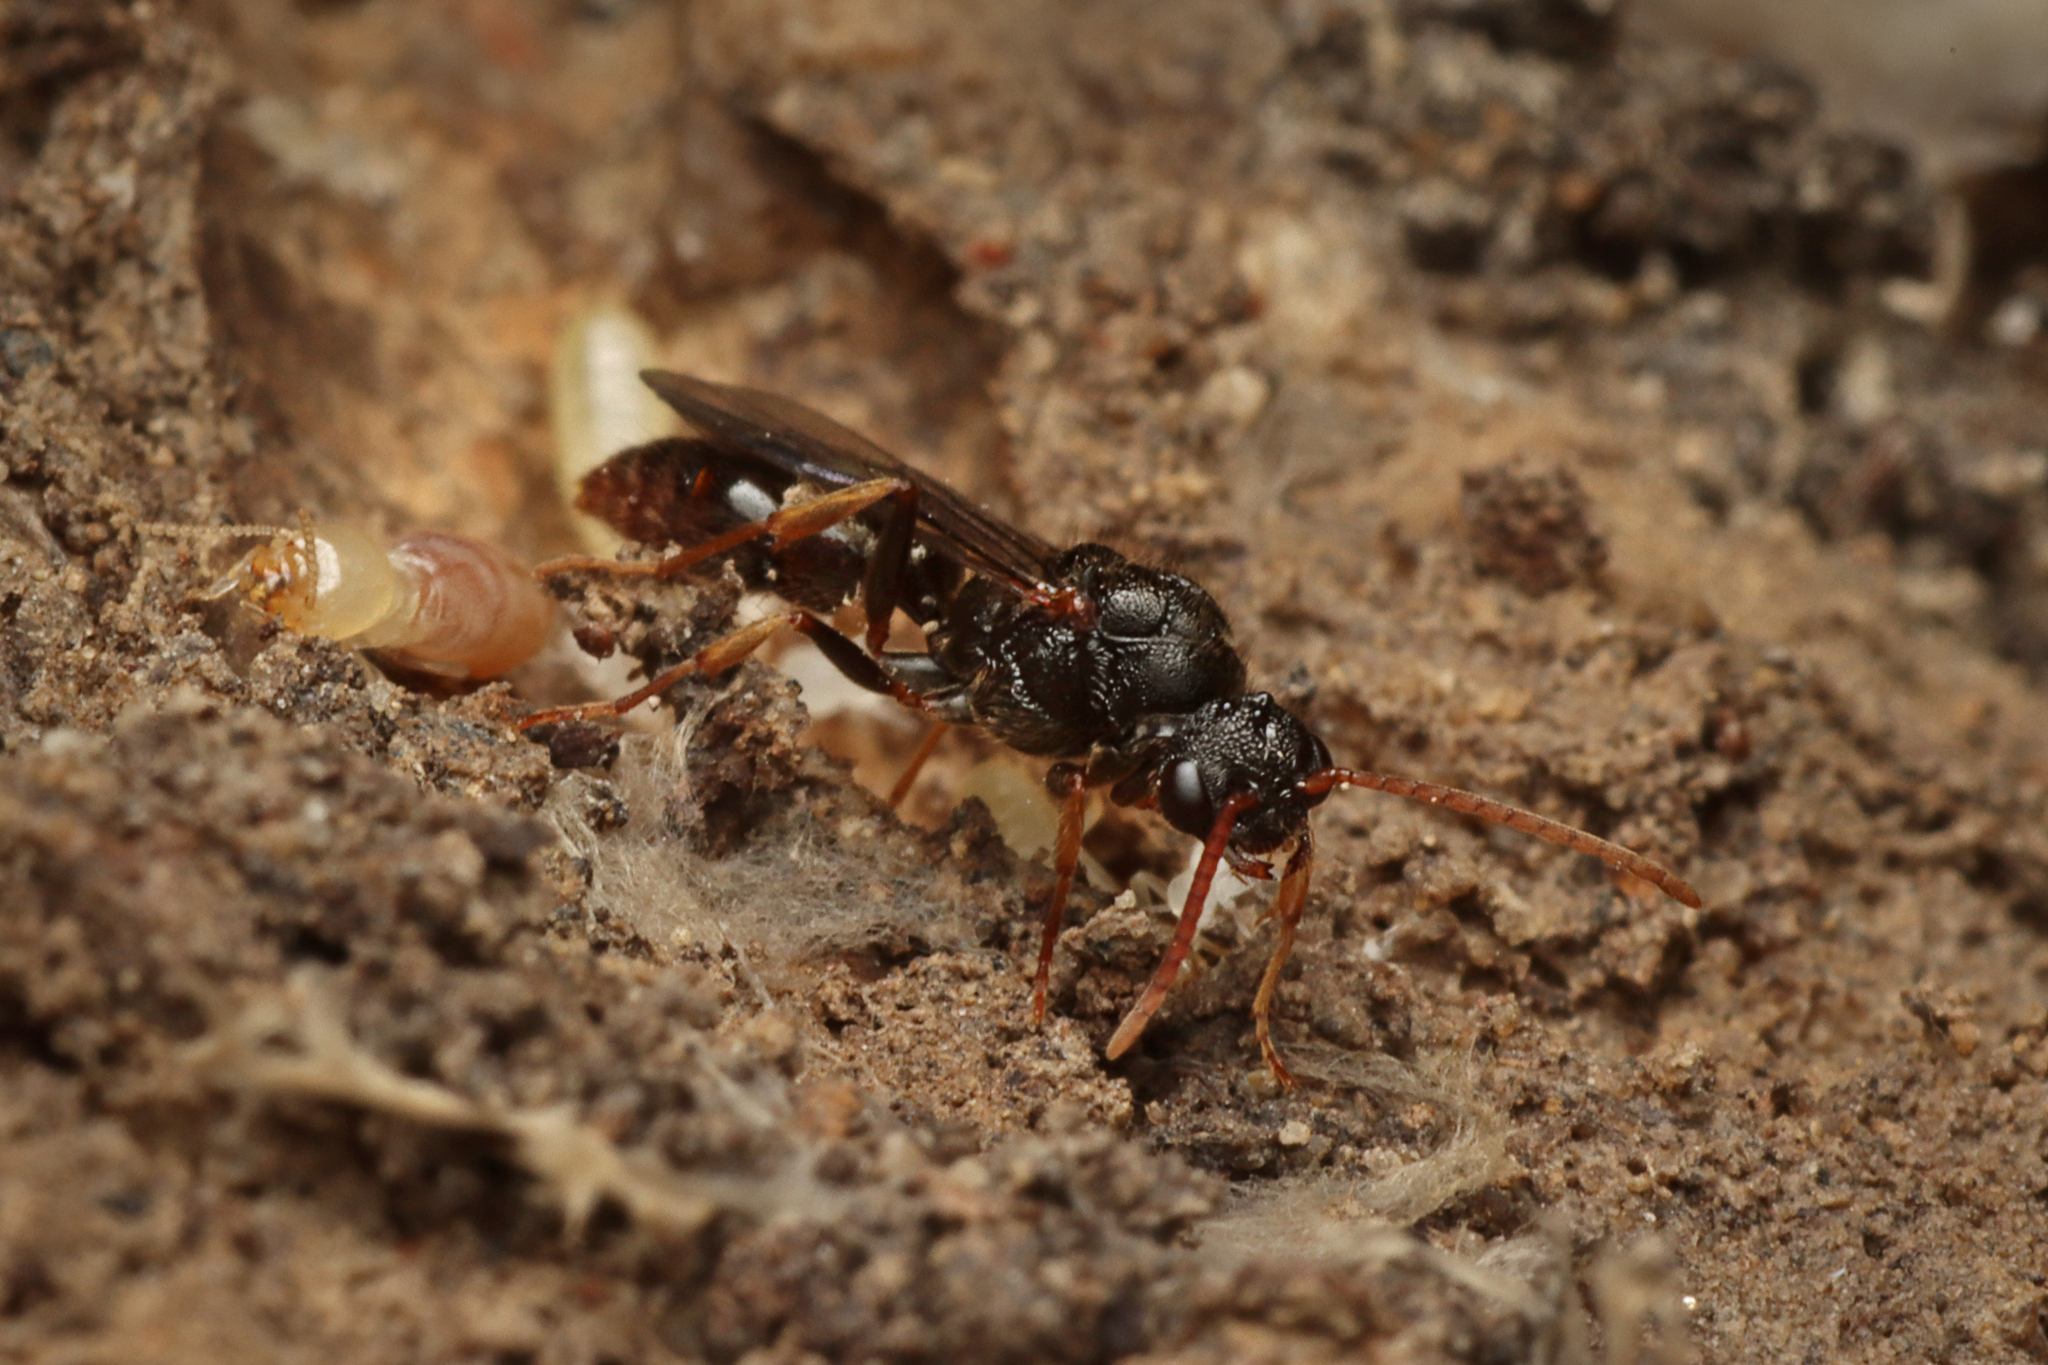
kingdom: Animalia
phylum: Arthropoda
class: Insecta
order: Hymenoptera
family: Formicidae
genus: Amblyopone
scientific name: Amblyopone australis
